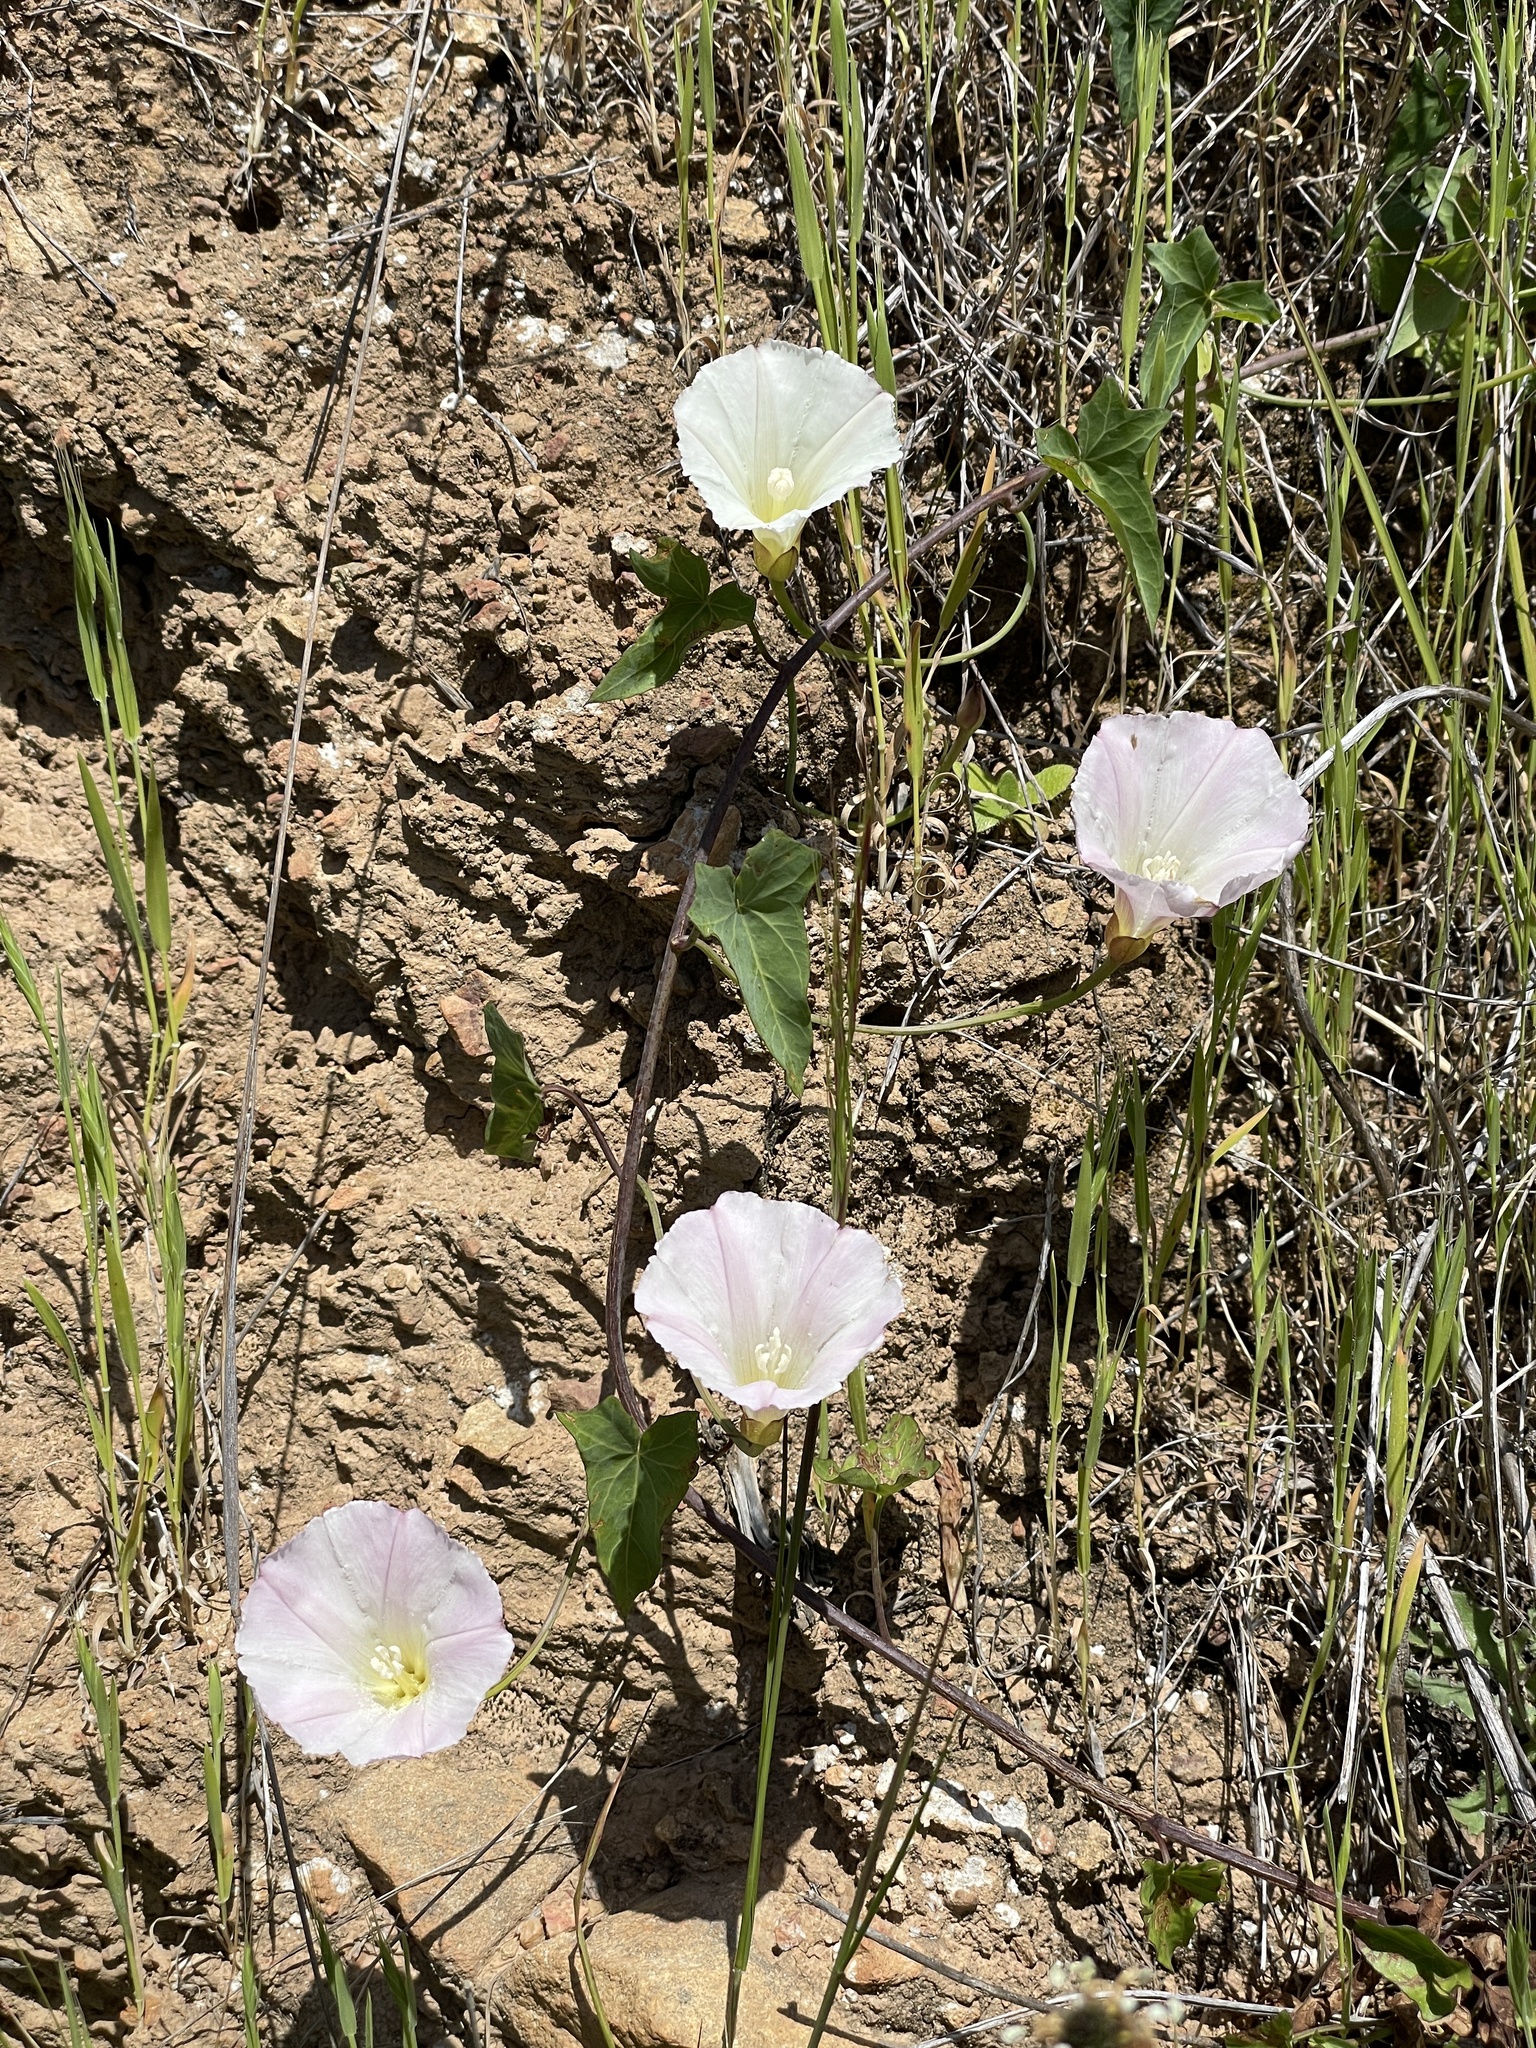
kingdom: Plantae
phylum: Tracheophyta
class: Magnoliopsida
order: Solanales
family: Convolvulaceae
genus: Calystegia
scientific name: Calystegia purpurata
